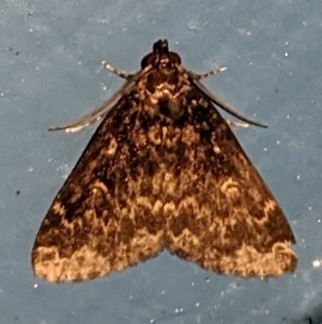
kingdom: Animalia
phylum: Arthropoda
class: Insecta
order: Lepidoptera
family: Erebidae
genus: Idia
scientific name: Idia lubricalis
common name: Twin-striped tabby
